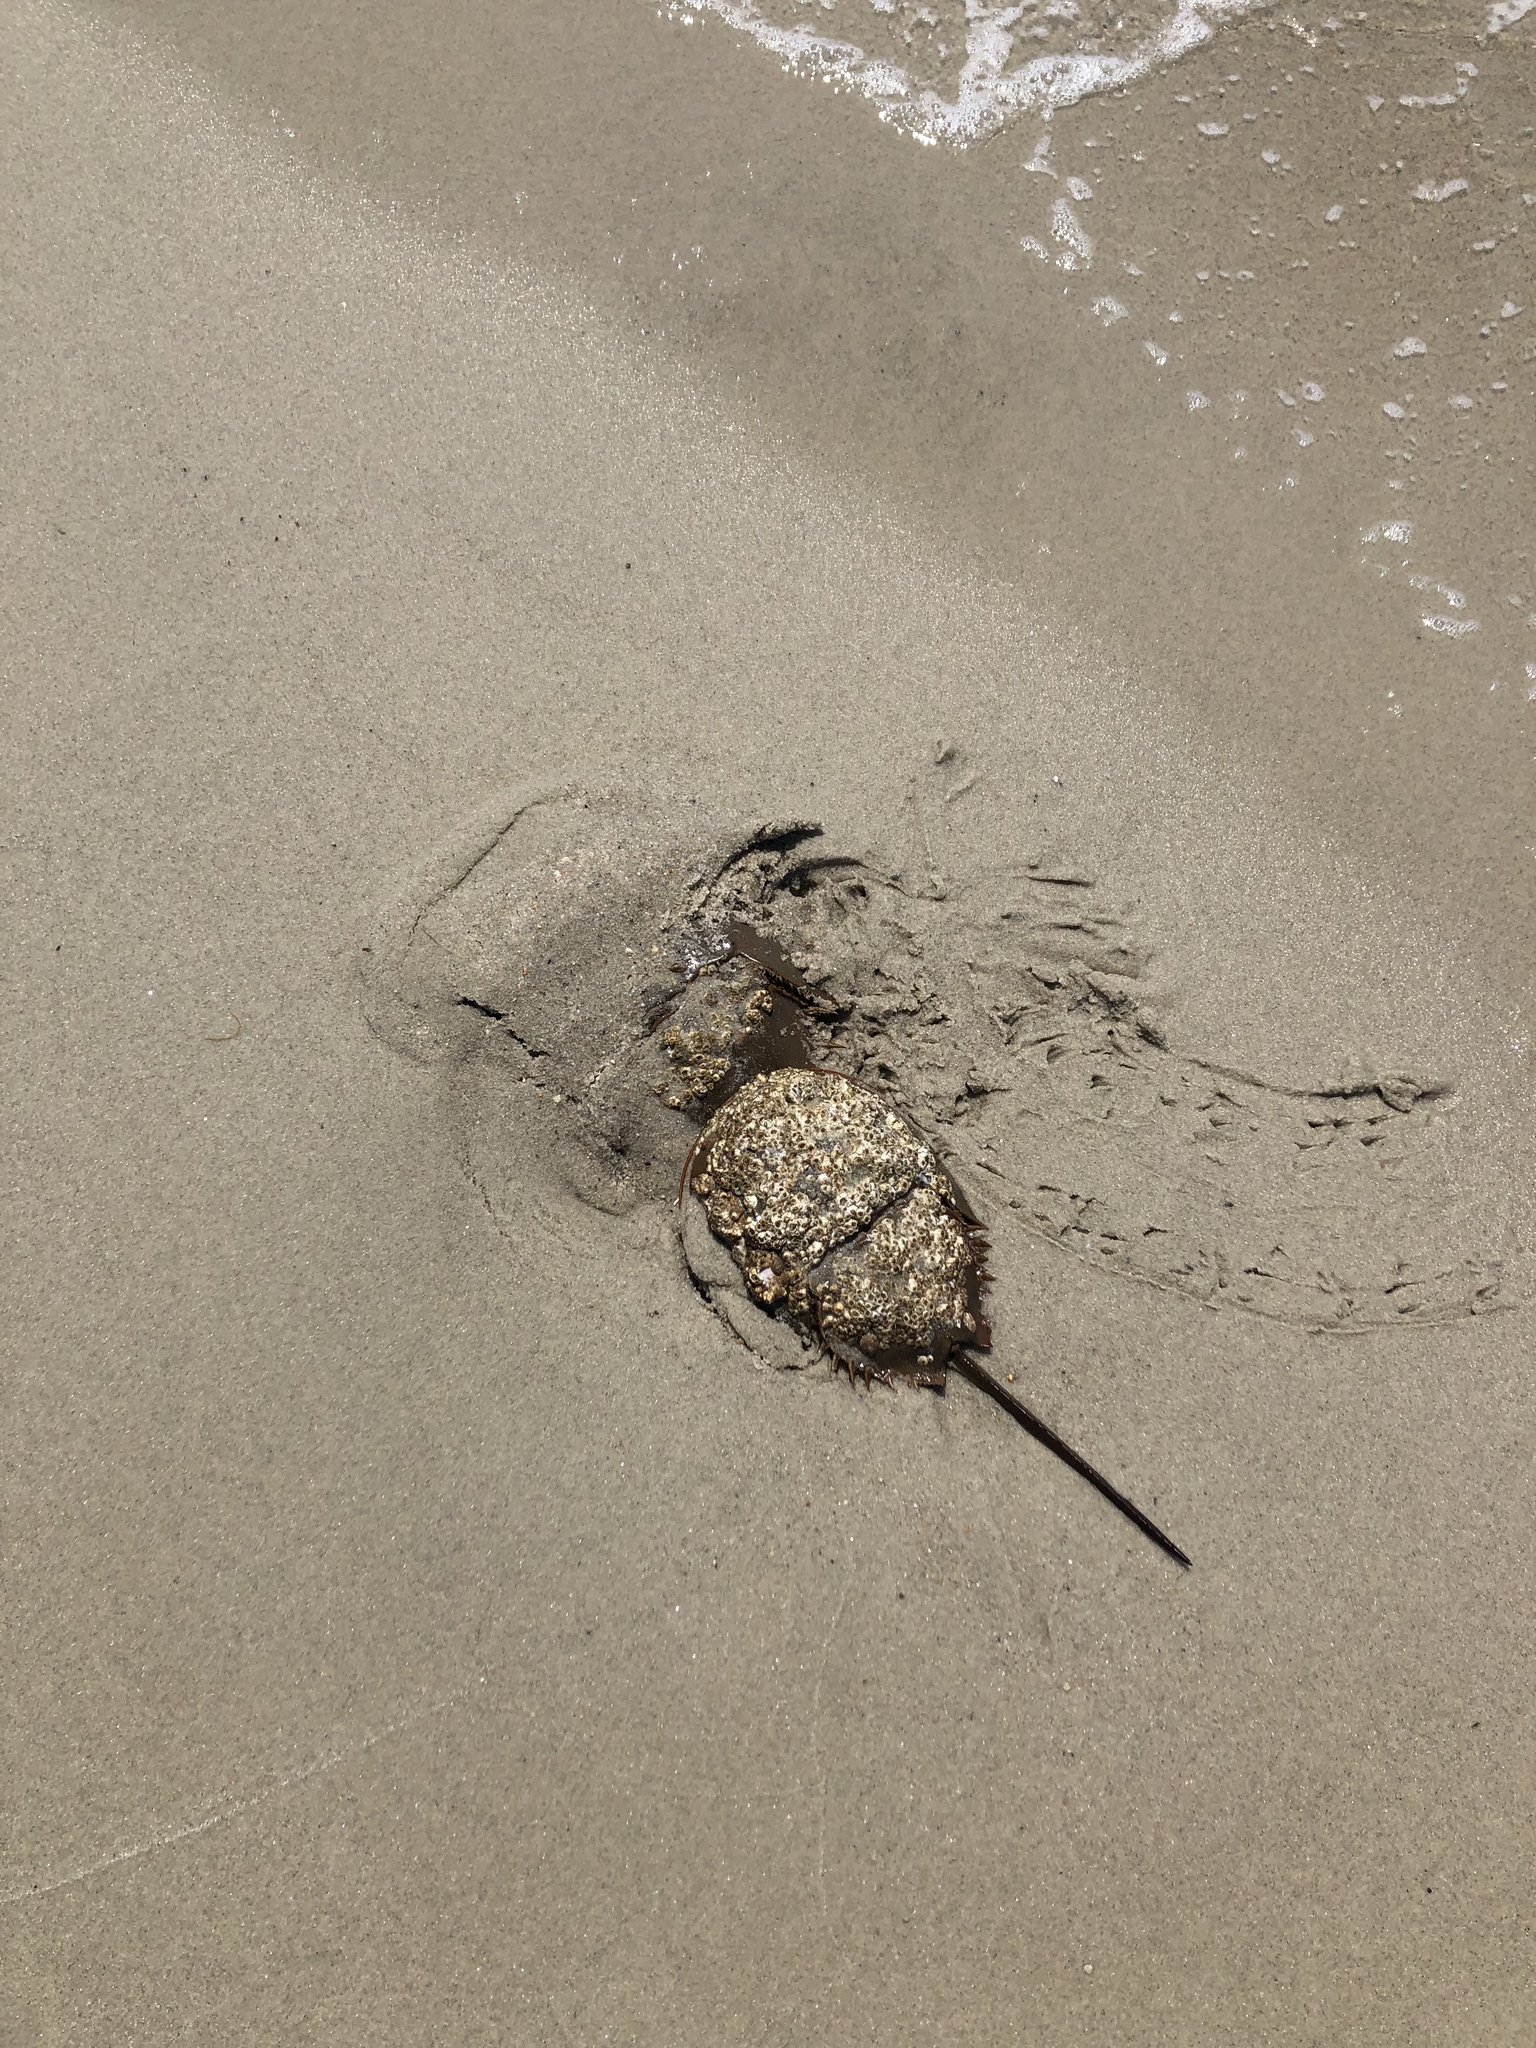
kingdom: Animalia
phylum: Arthropoda
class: Merostomata
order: Xiphosurida
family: Limulidae
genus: Limulus
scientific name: Limulus polyphemus
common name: Horseshoe crab
